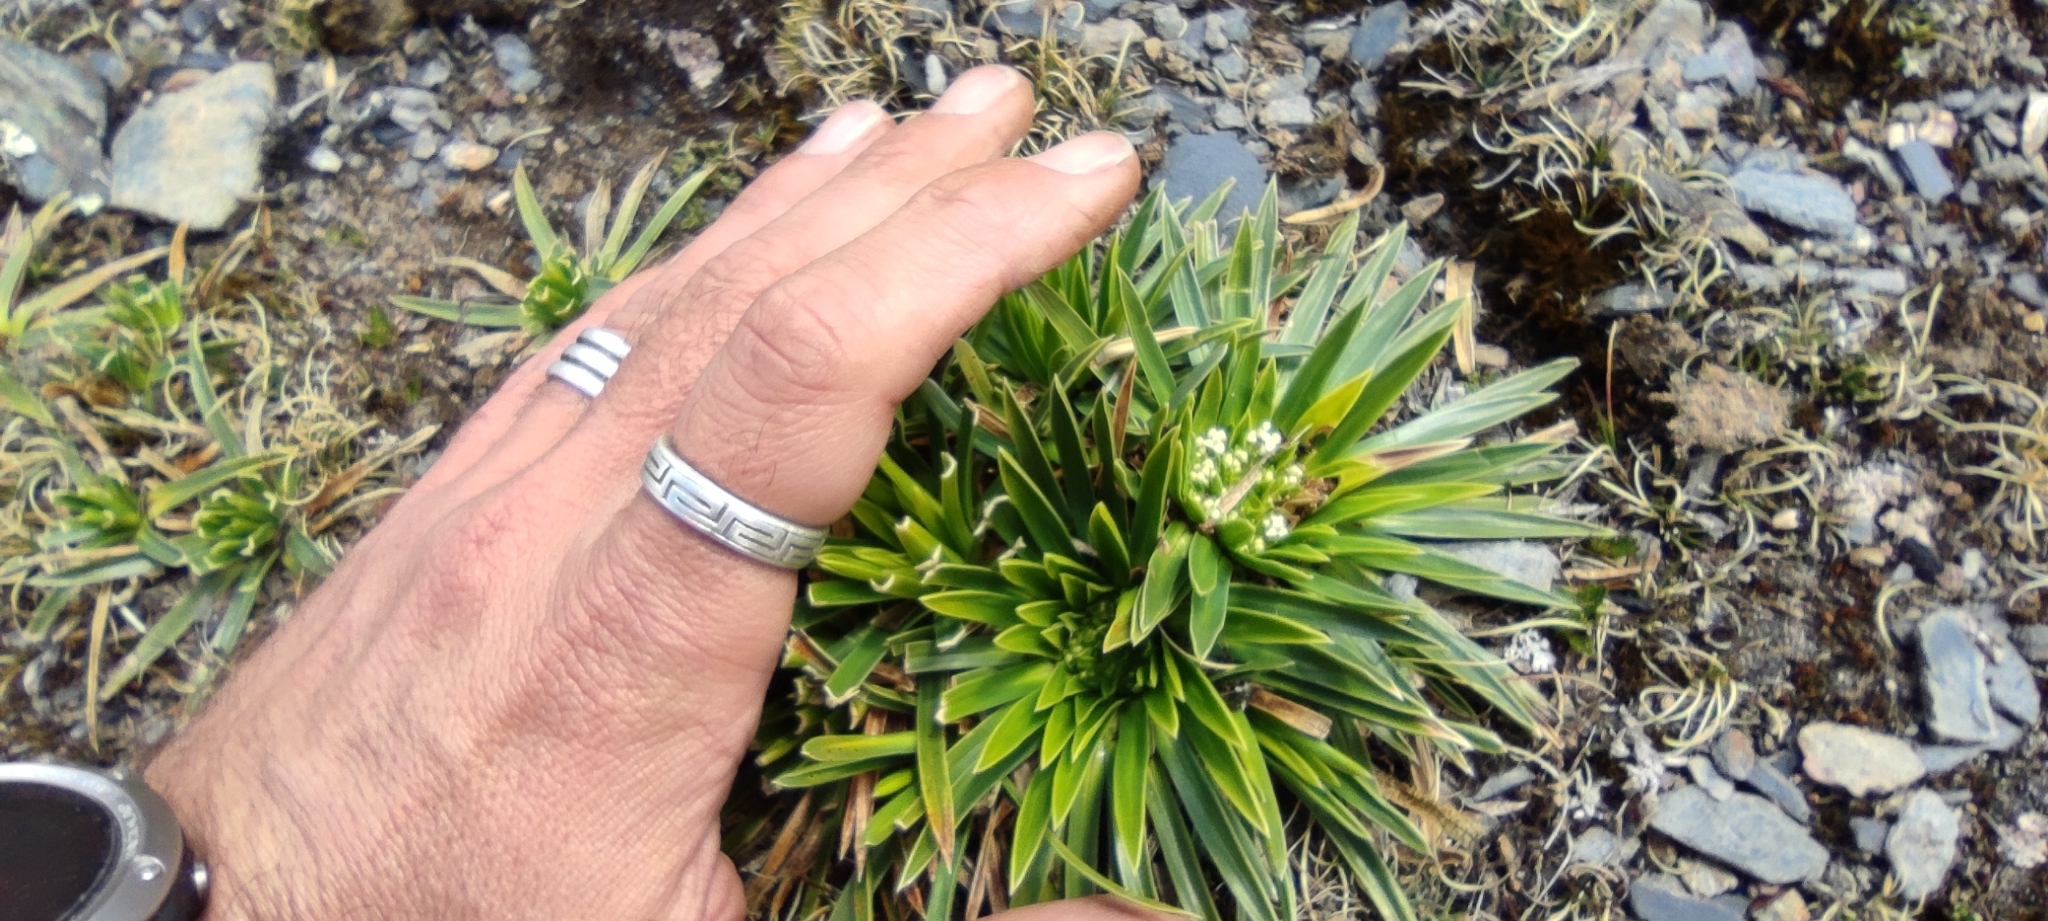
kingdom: Plantae
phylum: Tracheophyta
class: Magnoliopsida
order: Dipsacales
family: Caprifoliaceae
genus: Valeriana
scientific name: Valeriana rigida
